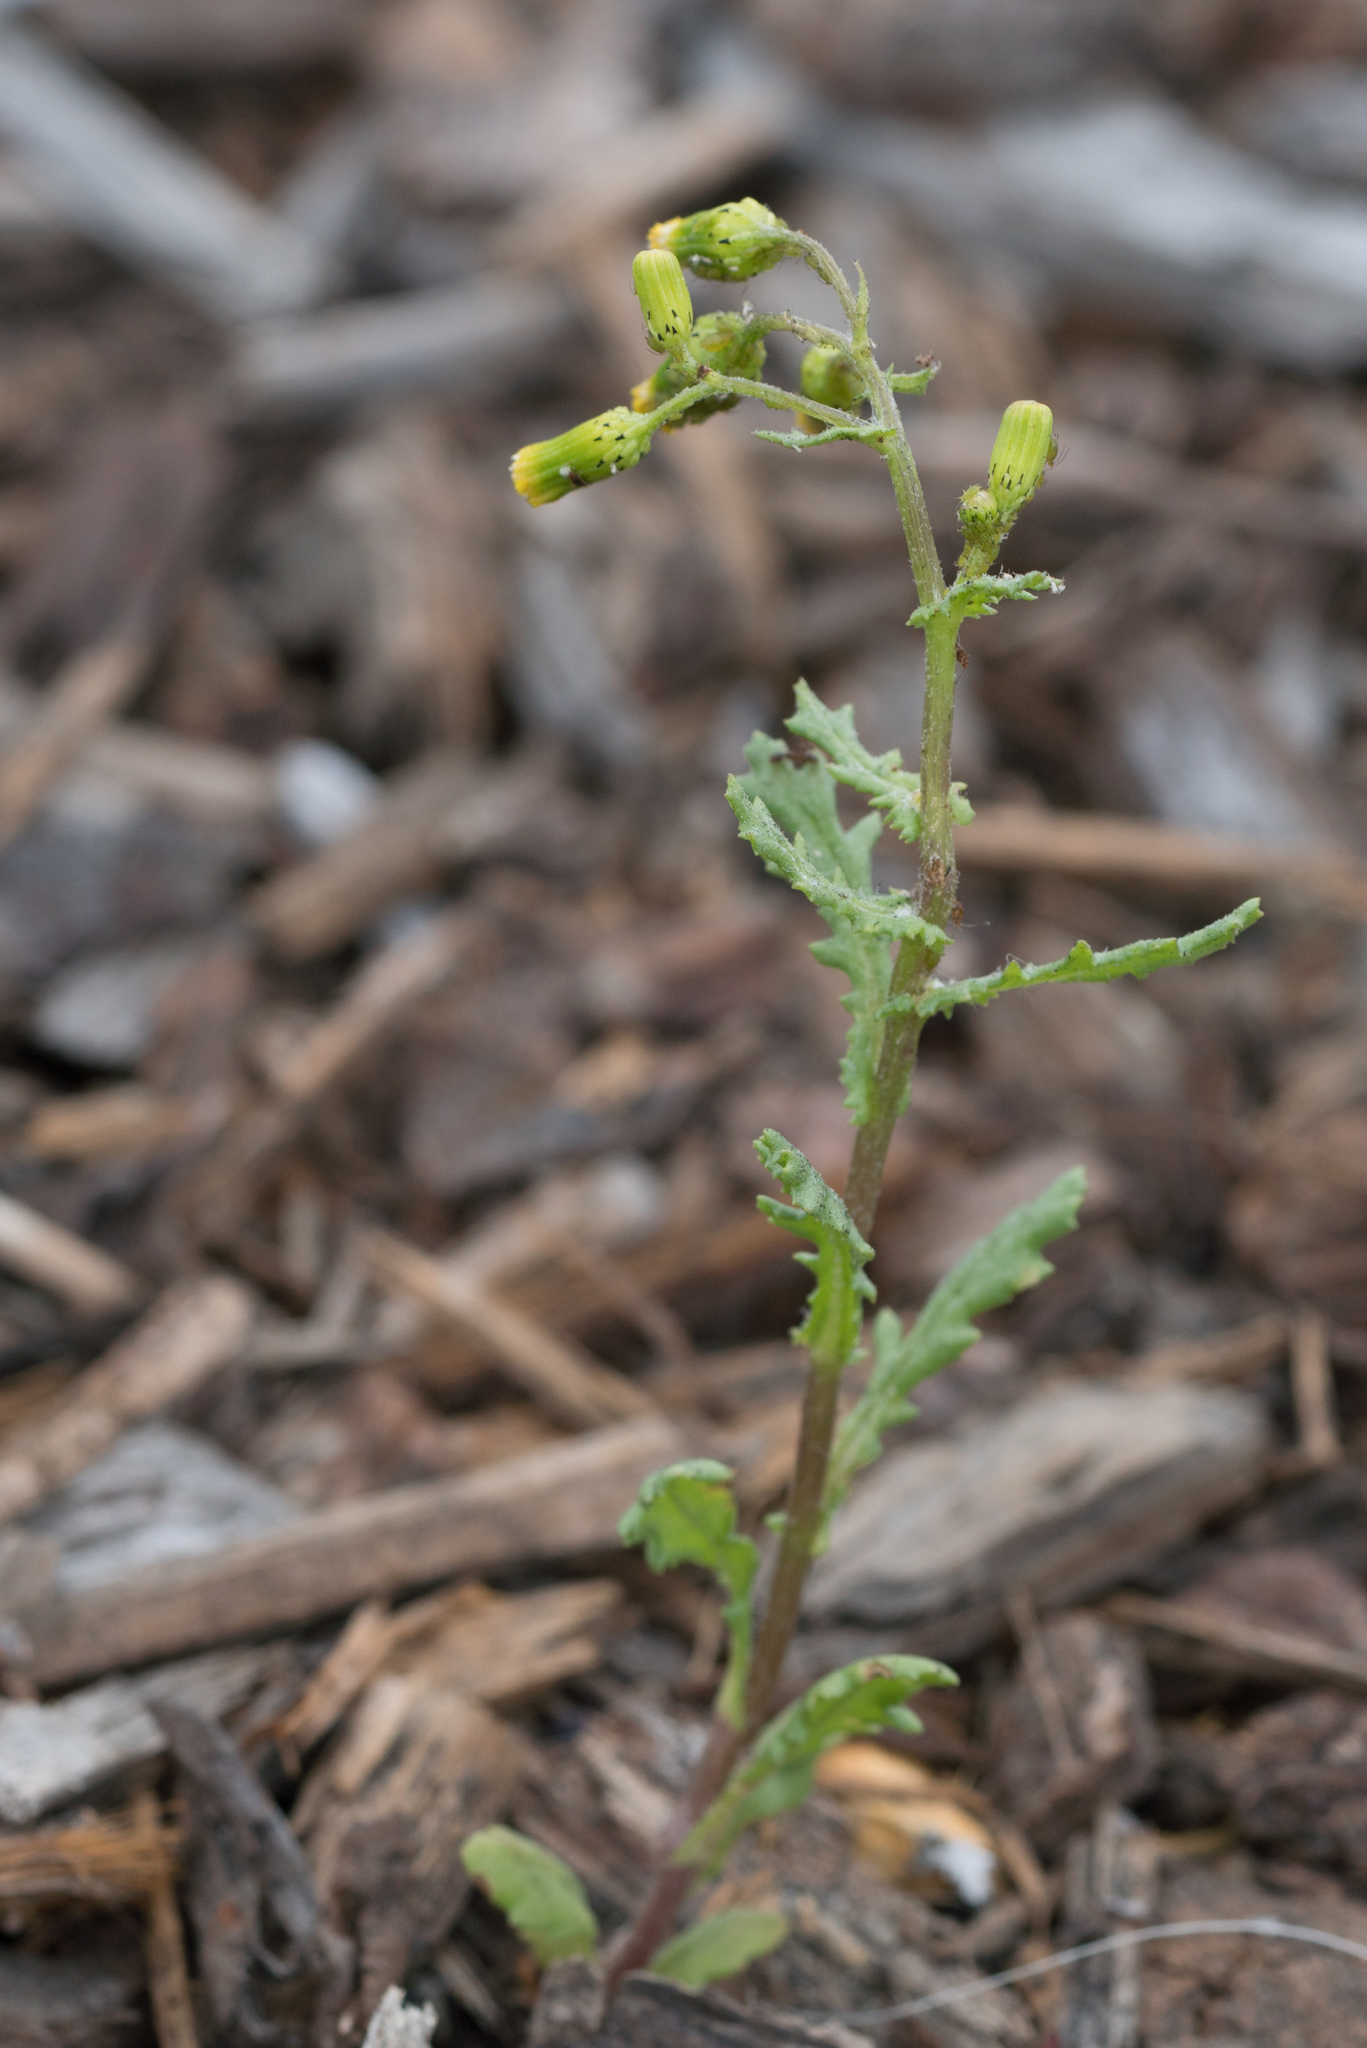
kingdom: Plantae
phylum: Tracheophyta
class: Magnoliopsida
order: Asterales
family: Asteraceae
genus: Senecio
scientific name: Senecio vulgaris
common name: Old-man-in-the-spring
